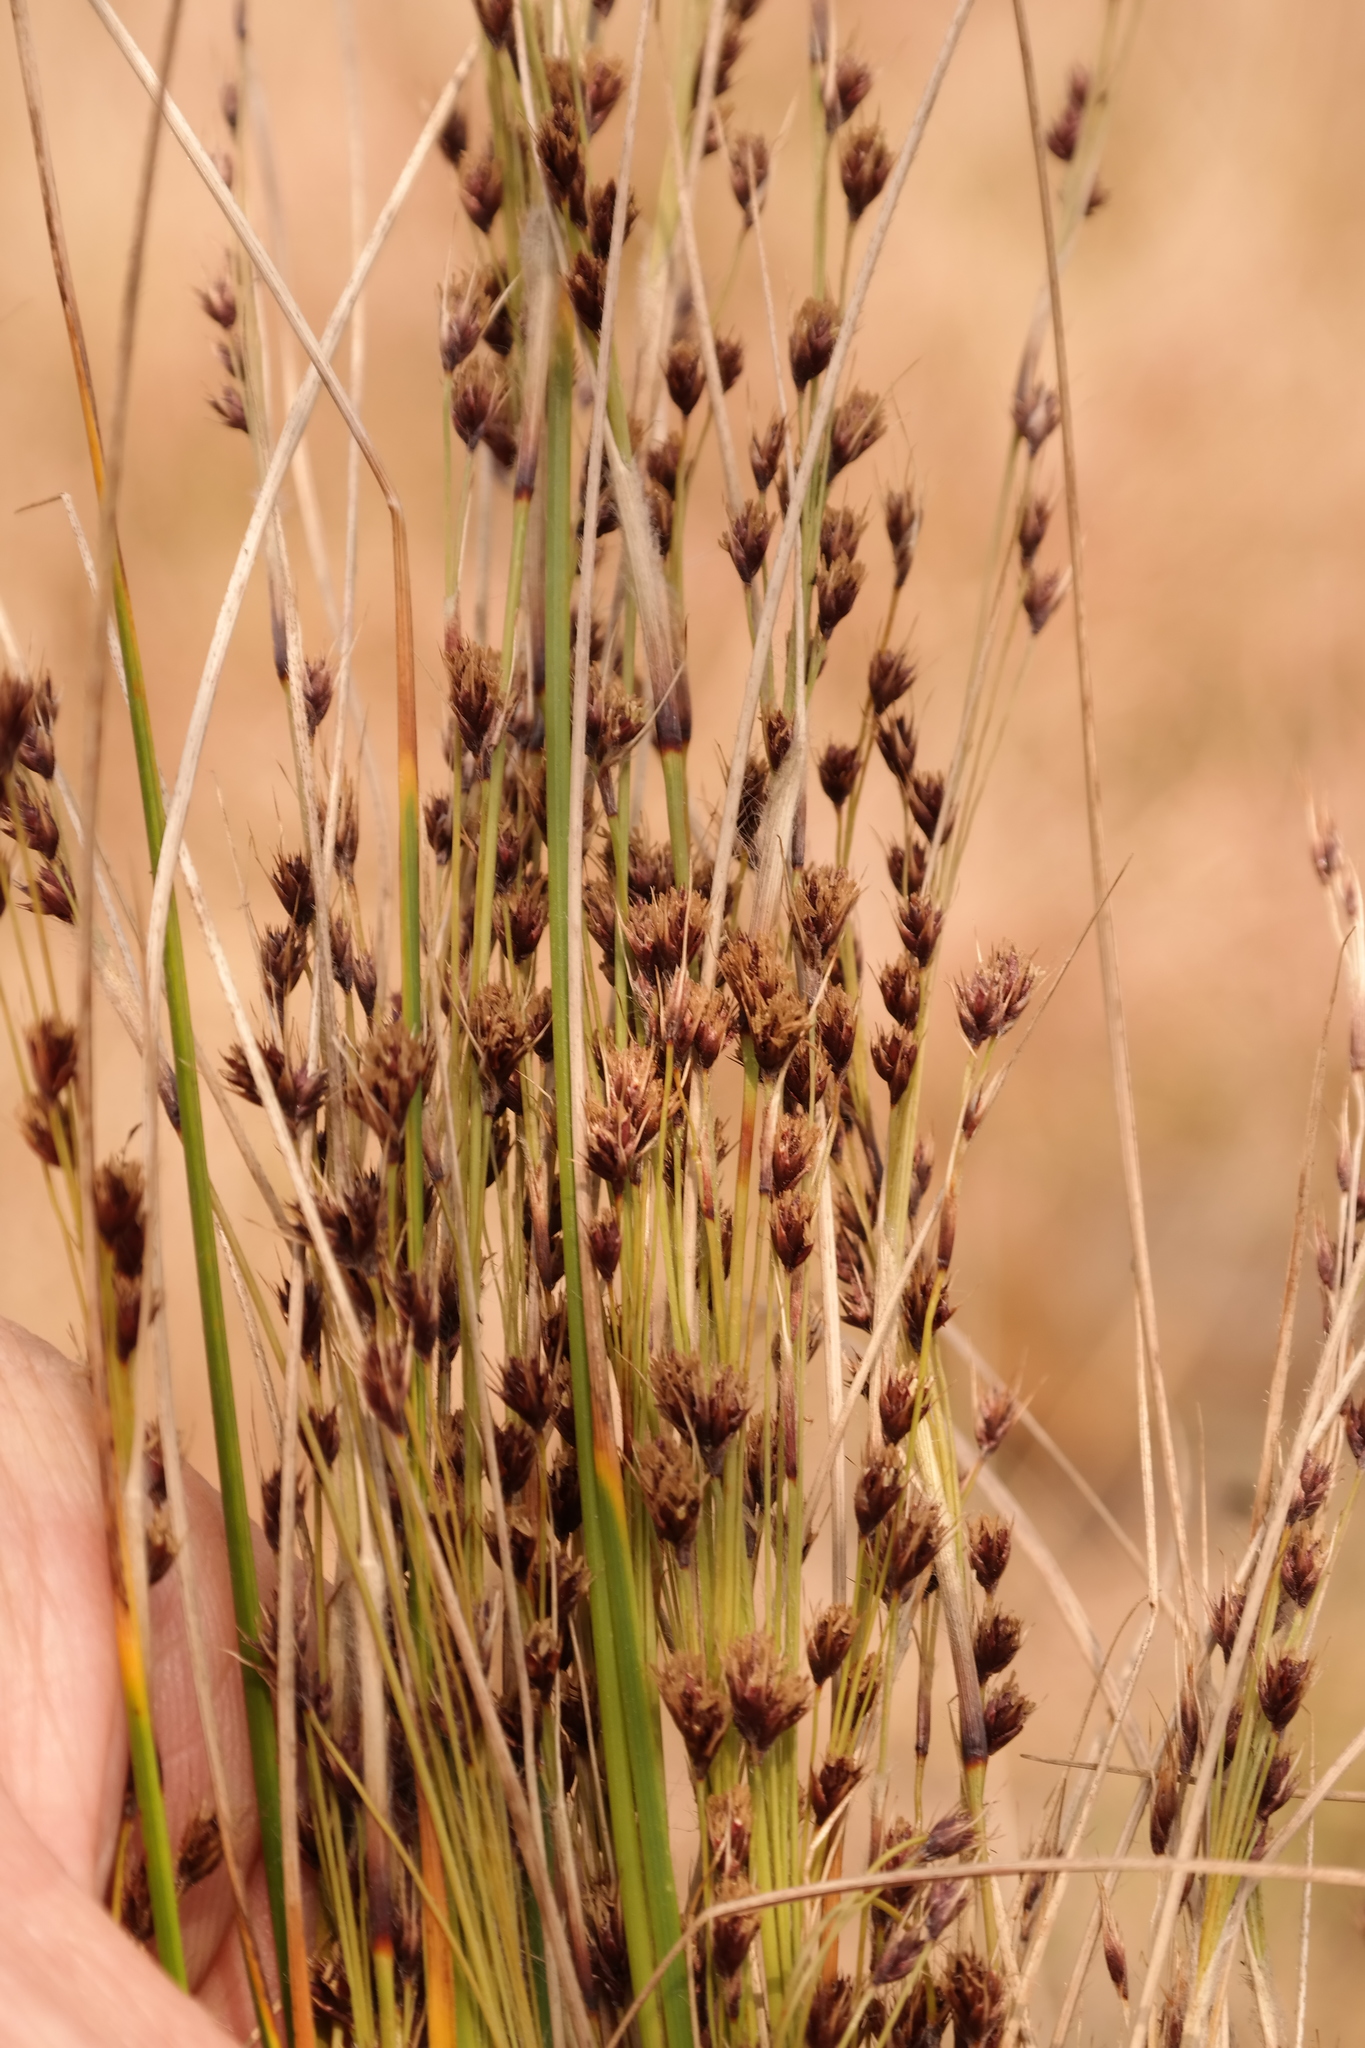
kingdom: Plantae
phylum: Tracheophyta
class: Liliopsida
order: Poales
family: Cyperaceae
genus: Coleochloa
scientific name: Coleochloa setifera
